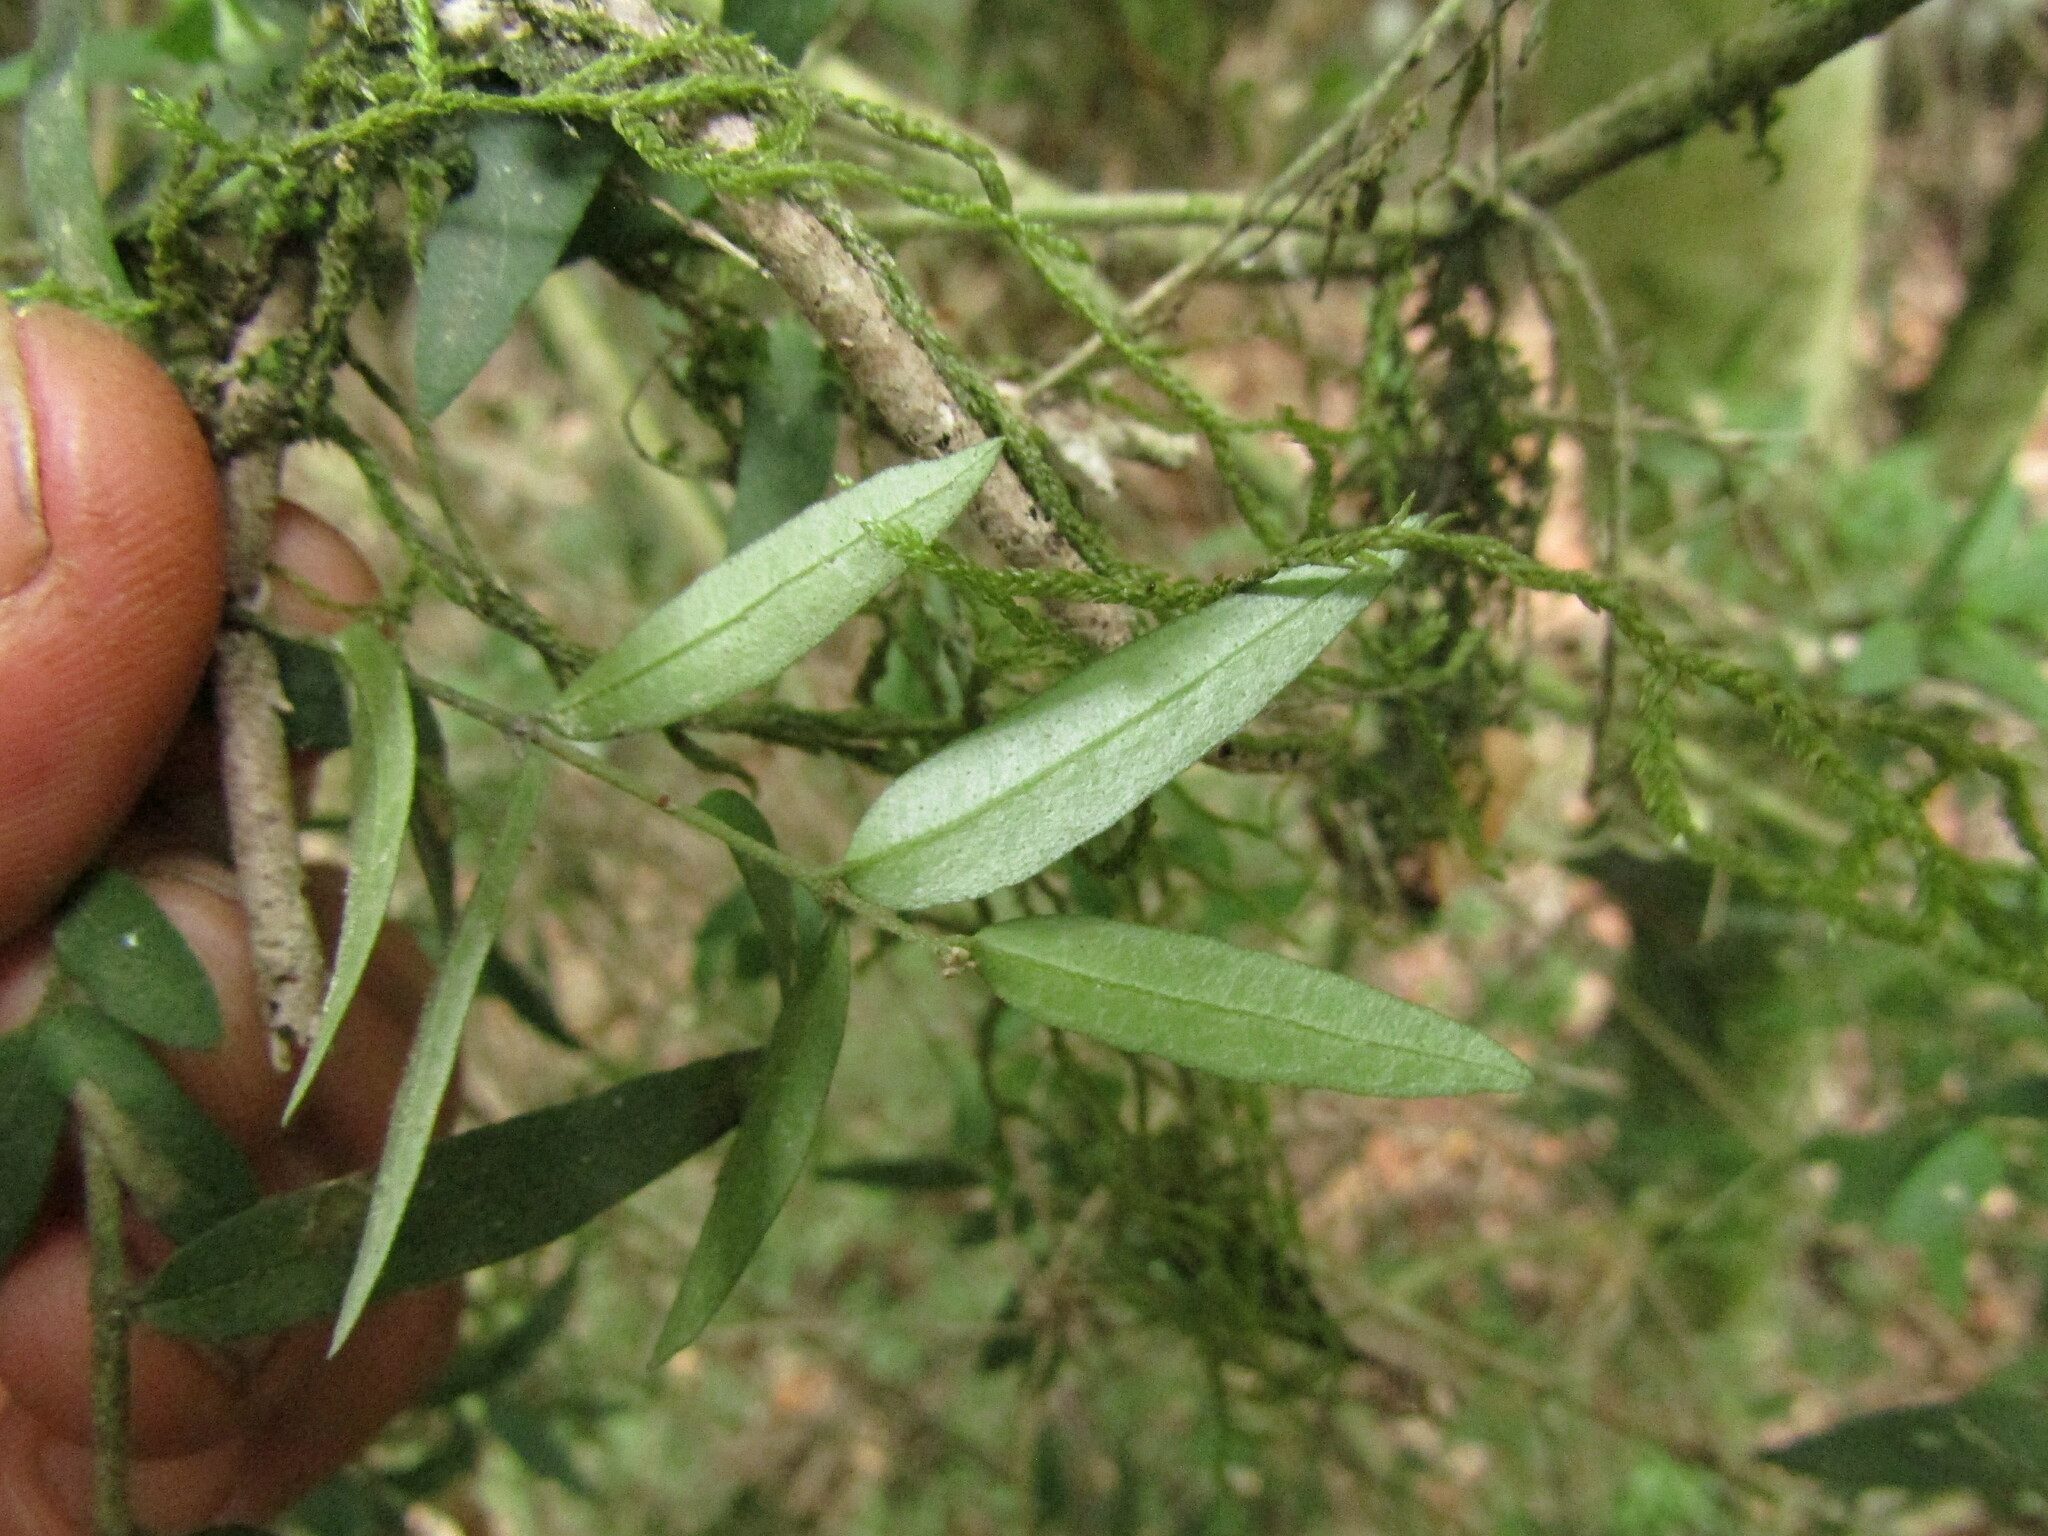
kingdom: Plantae
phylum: Tracheophyta
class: Magnoliopsida
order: Myrtales
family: Myrtaceae
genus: Myrceugenia
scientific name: Myrceugenia parvifolia
